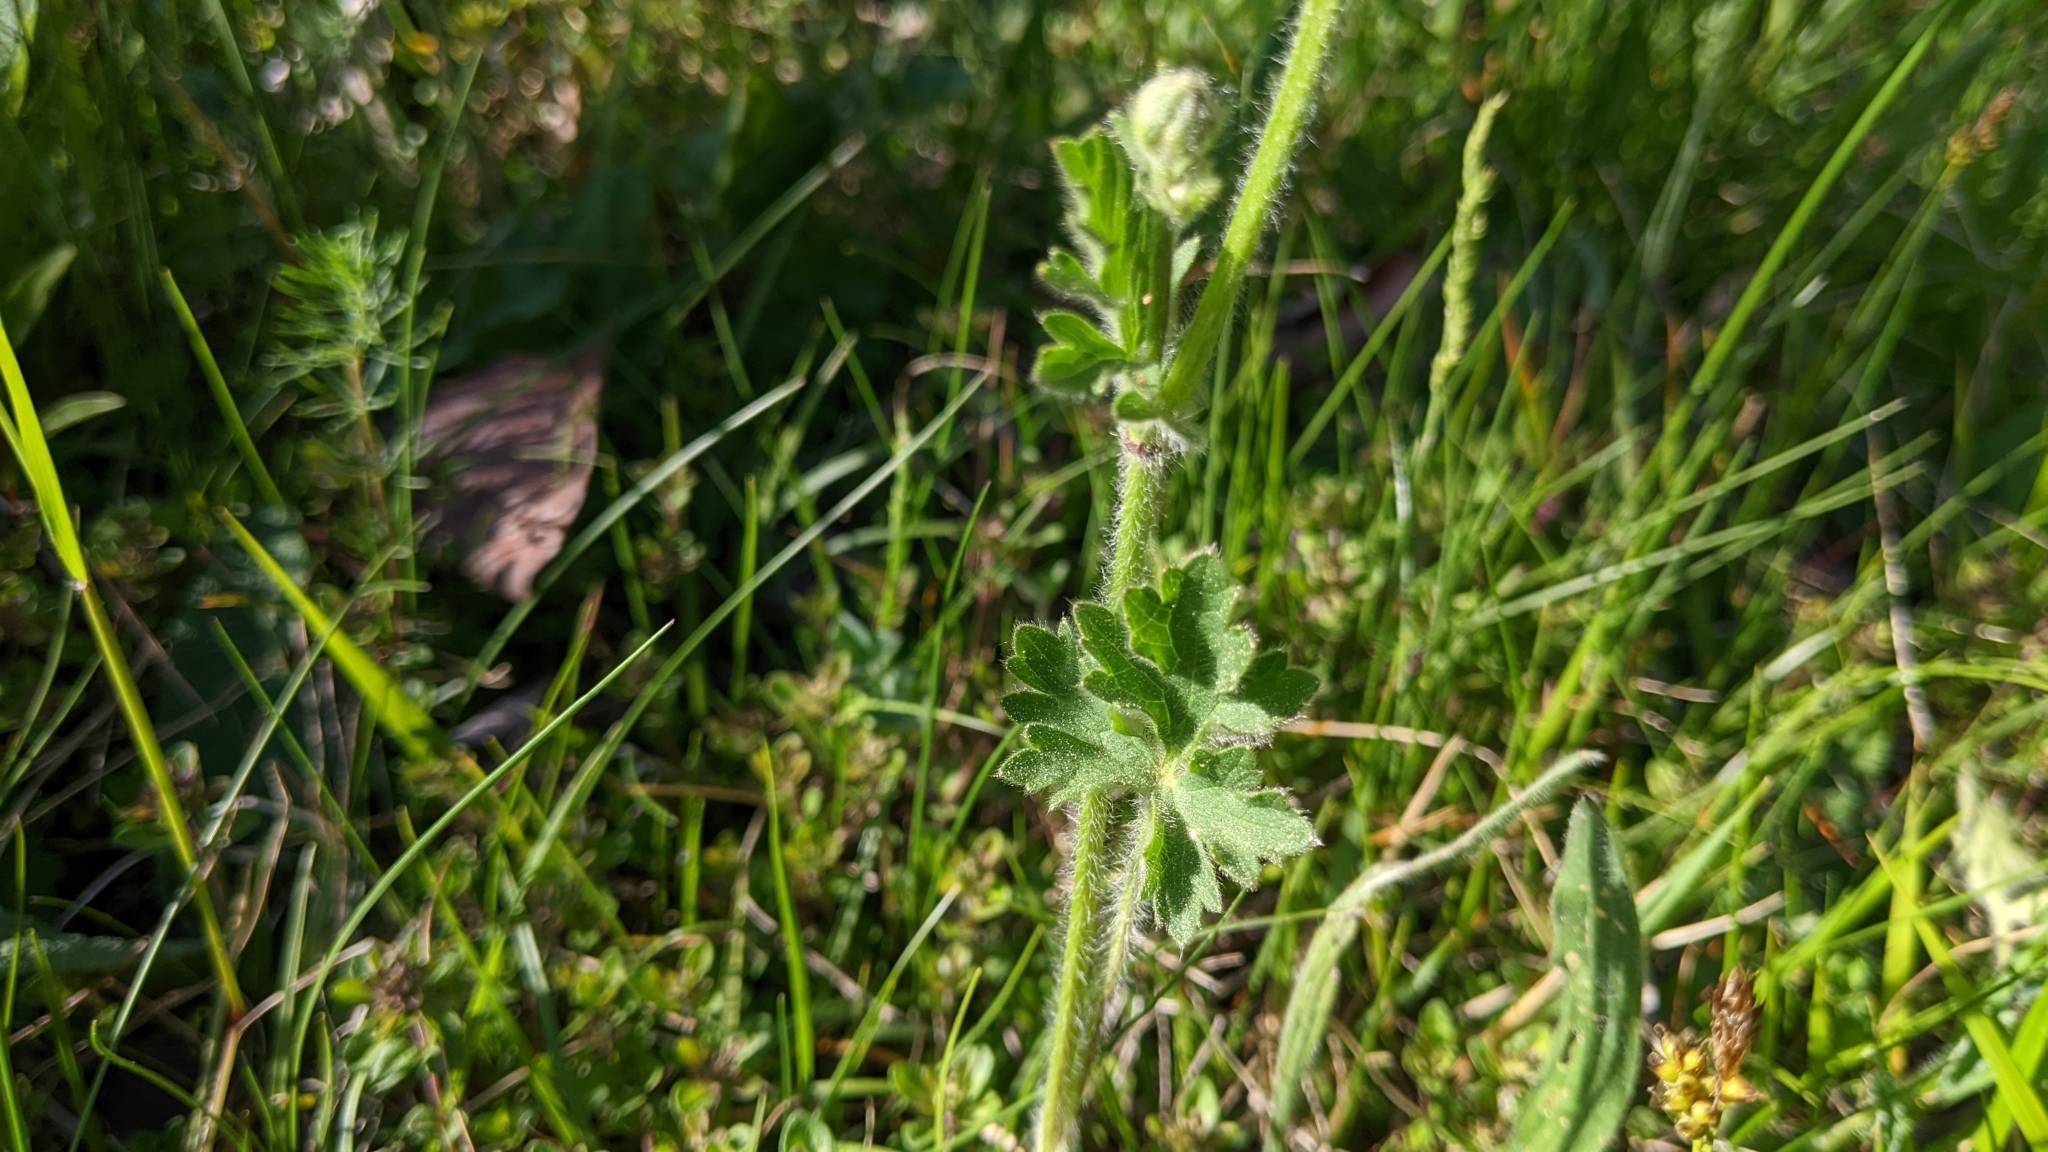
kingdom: Plantae
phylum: Tracheophyta
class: Magnoliopsida
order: Ranunculales
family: Ranunculaceae
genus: Ranunculus
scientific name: Ranunculus bulbosus
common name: Bulbous buttercup
